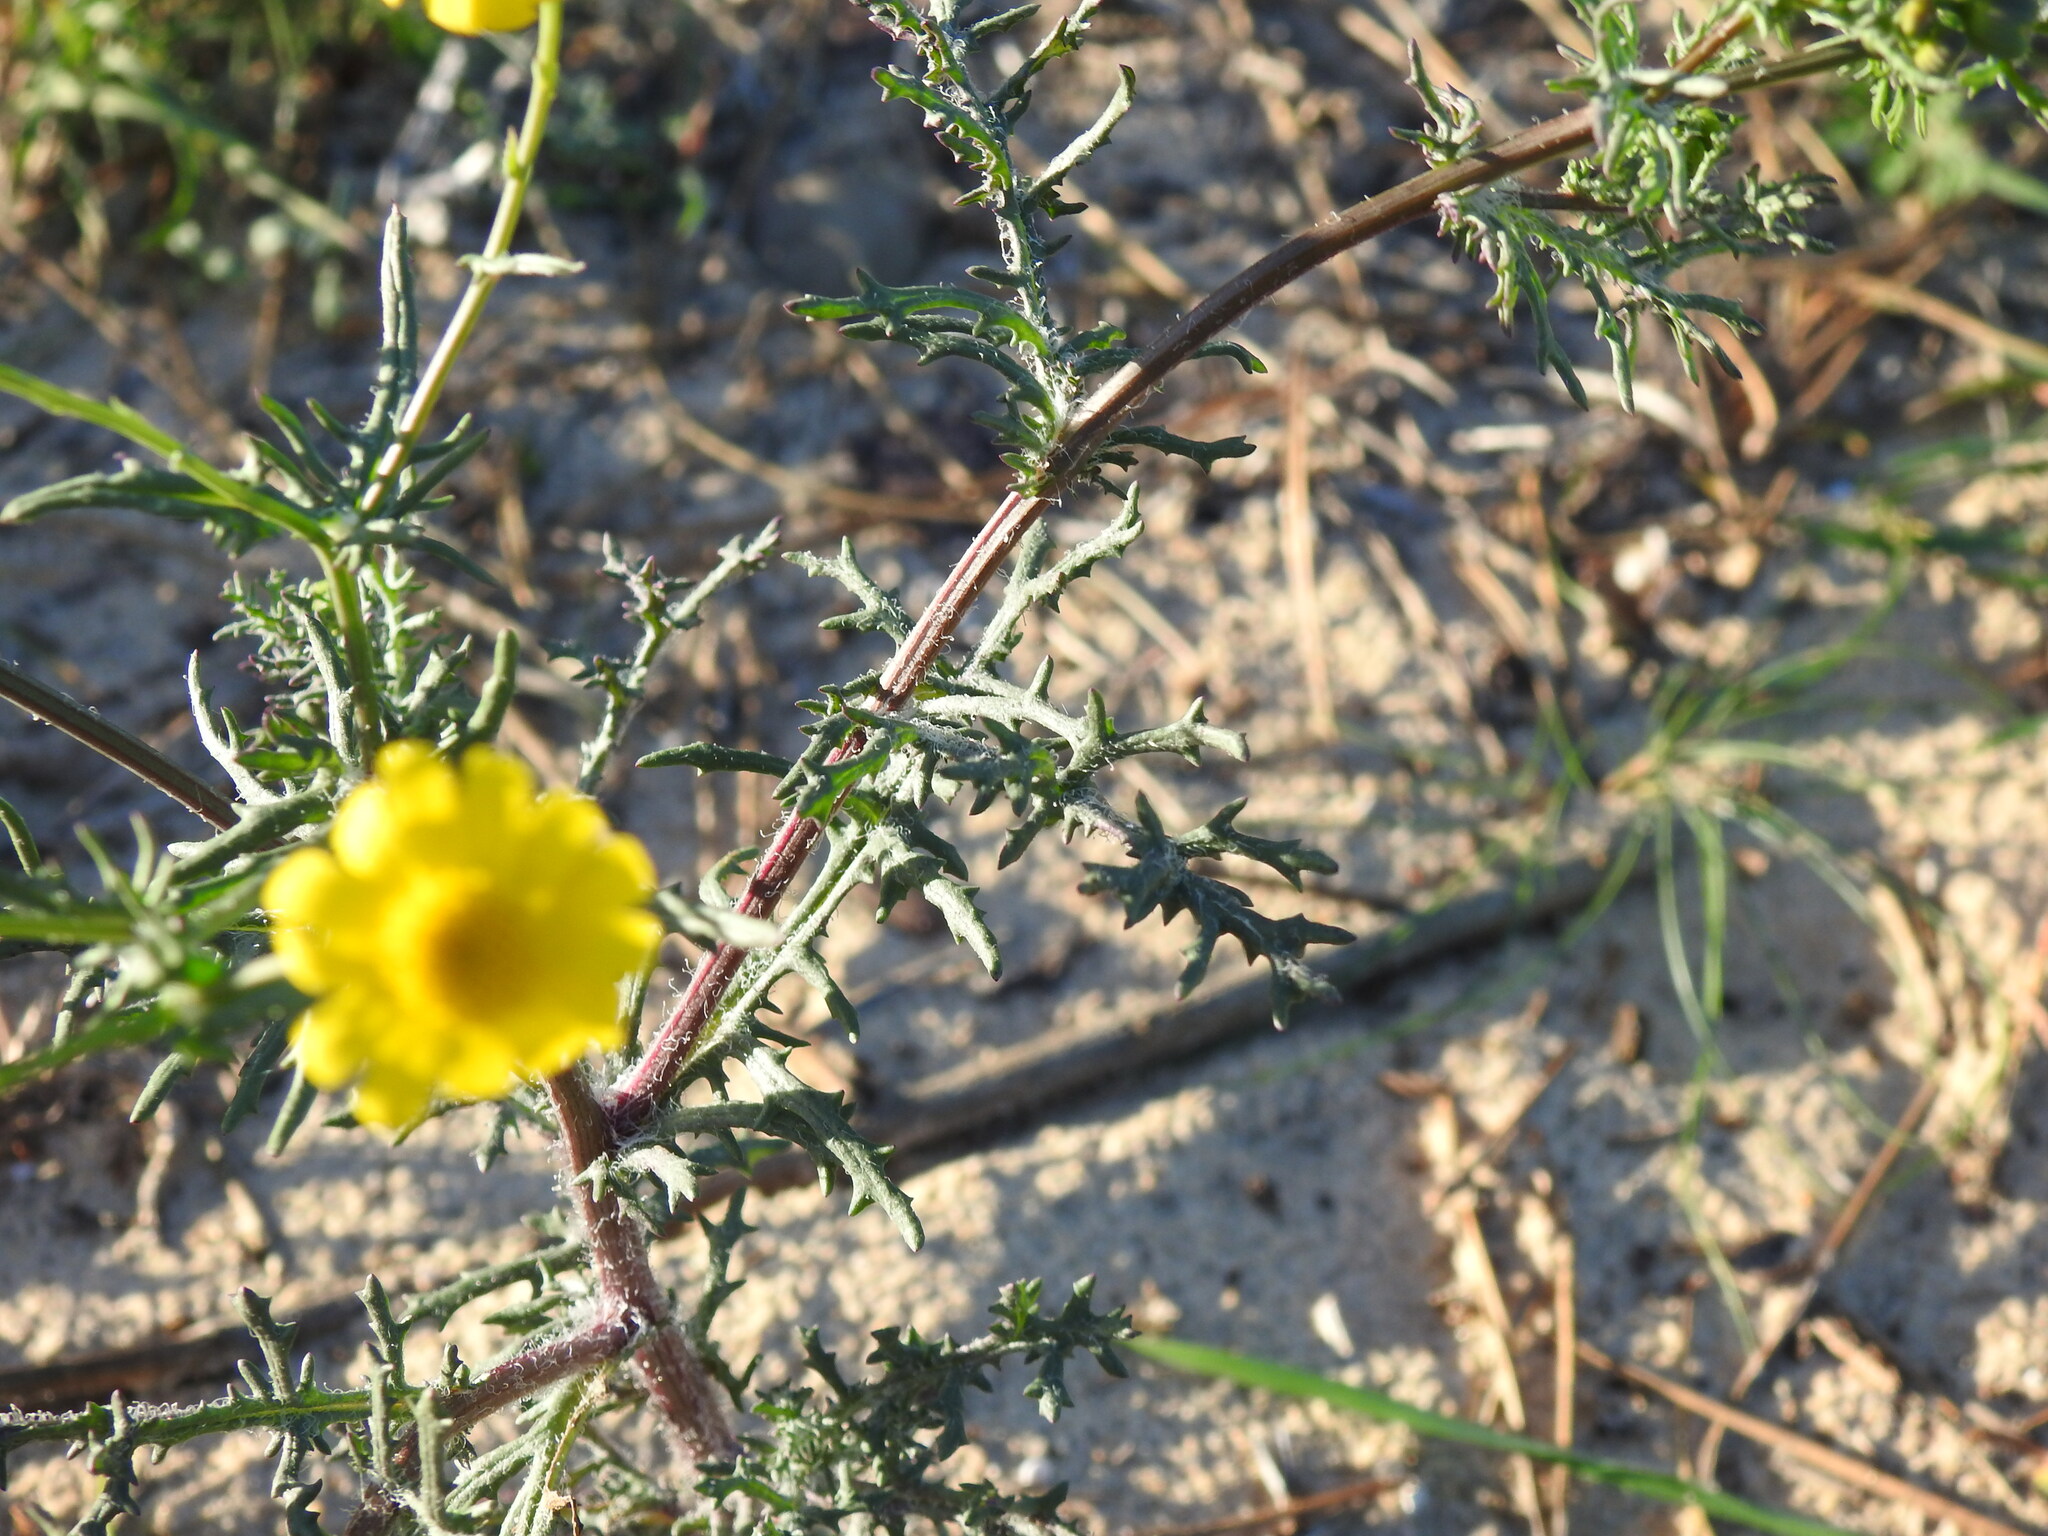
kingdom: Plantae
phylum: Tracheophyta
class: Magnoliopsida
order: Asterales
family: Asteraceae
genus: Senecio
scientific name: Senecio gallicus
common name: French groundsel
